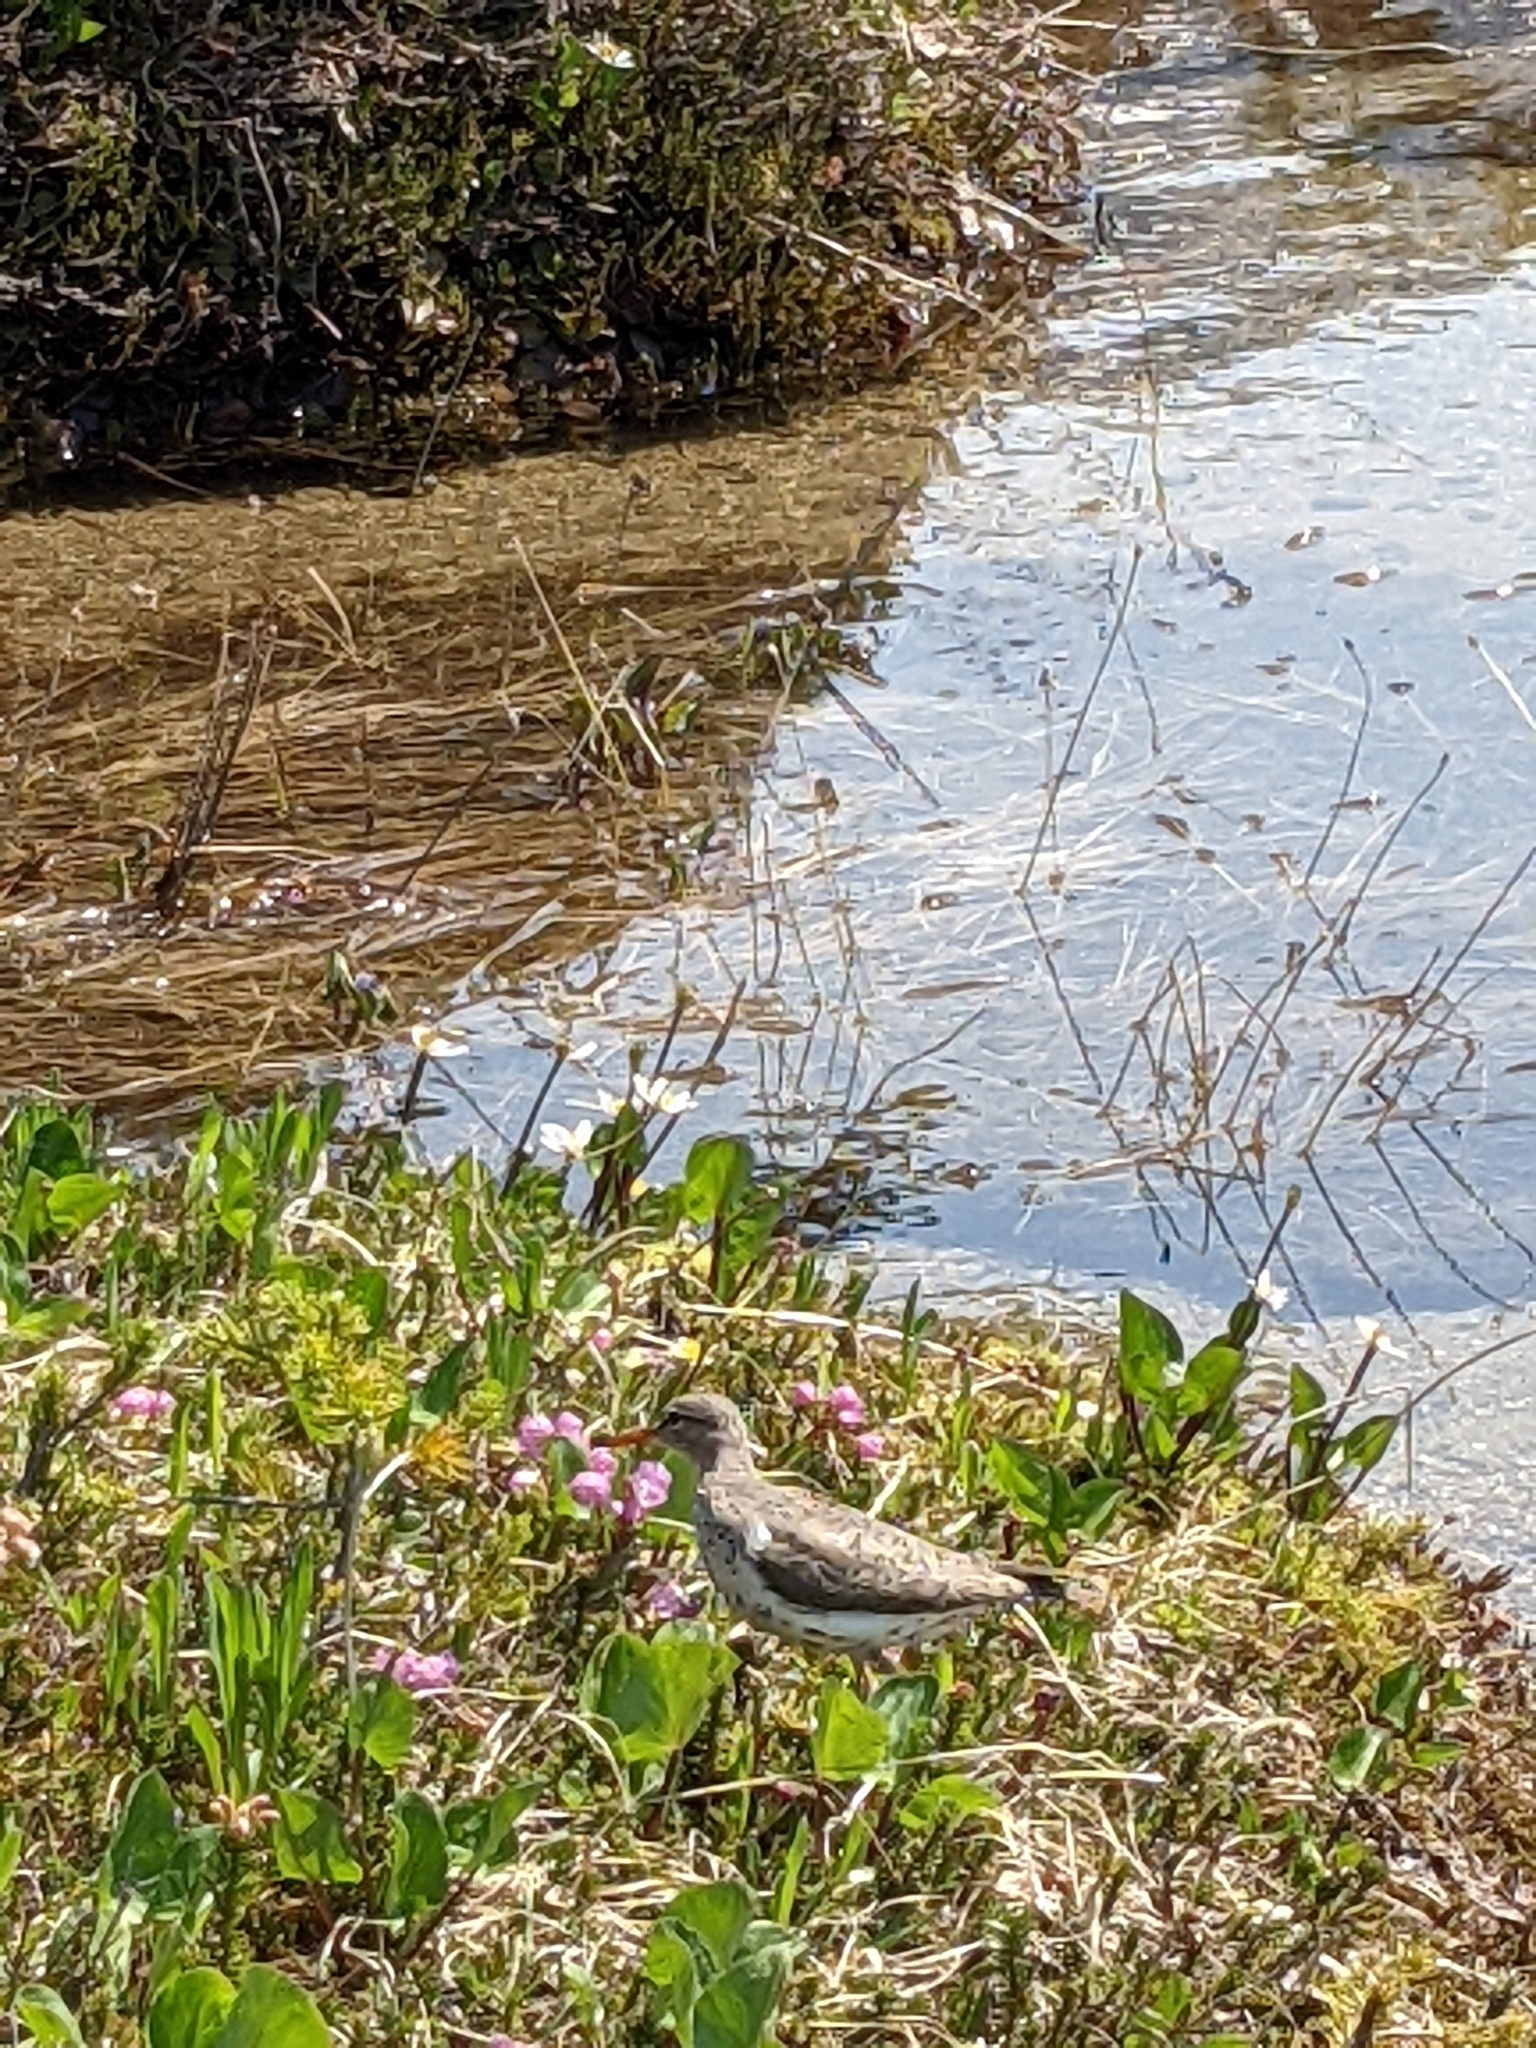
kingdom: Animalia
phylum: Chordata
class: Aves
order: Charadriiformes
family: Scolopacidae
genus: Actitis
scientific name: Actitis macularius
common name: Spotted sandpiper
